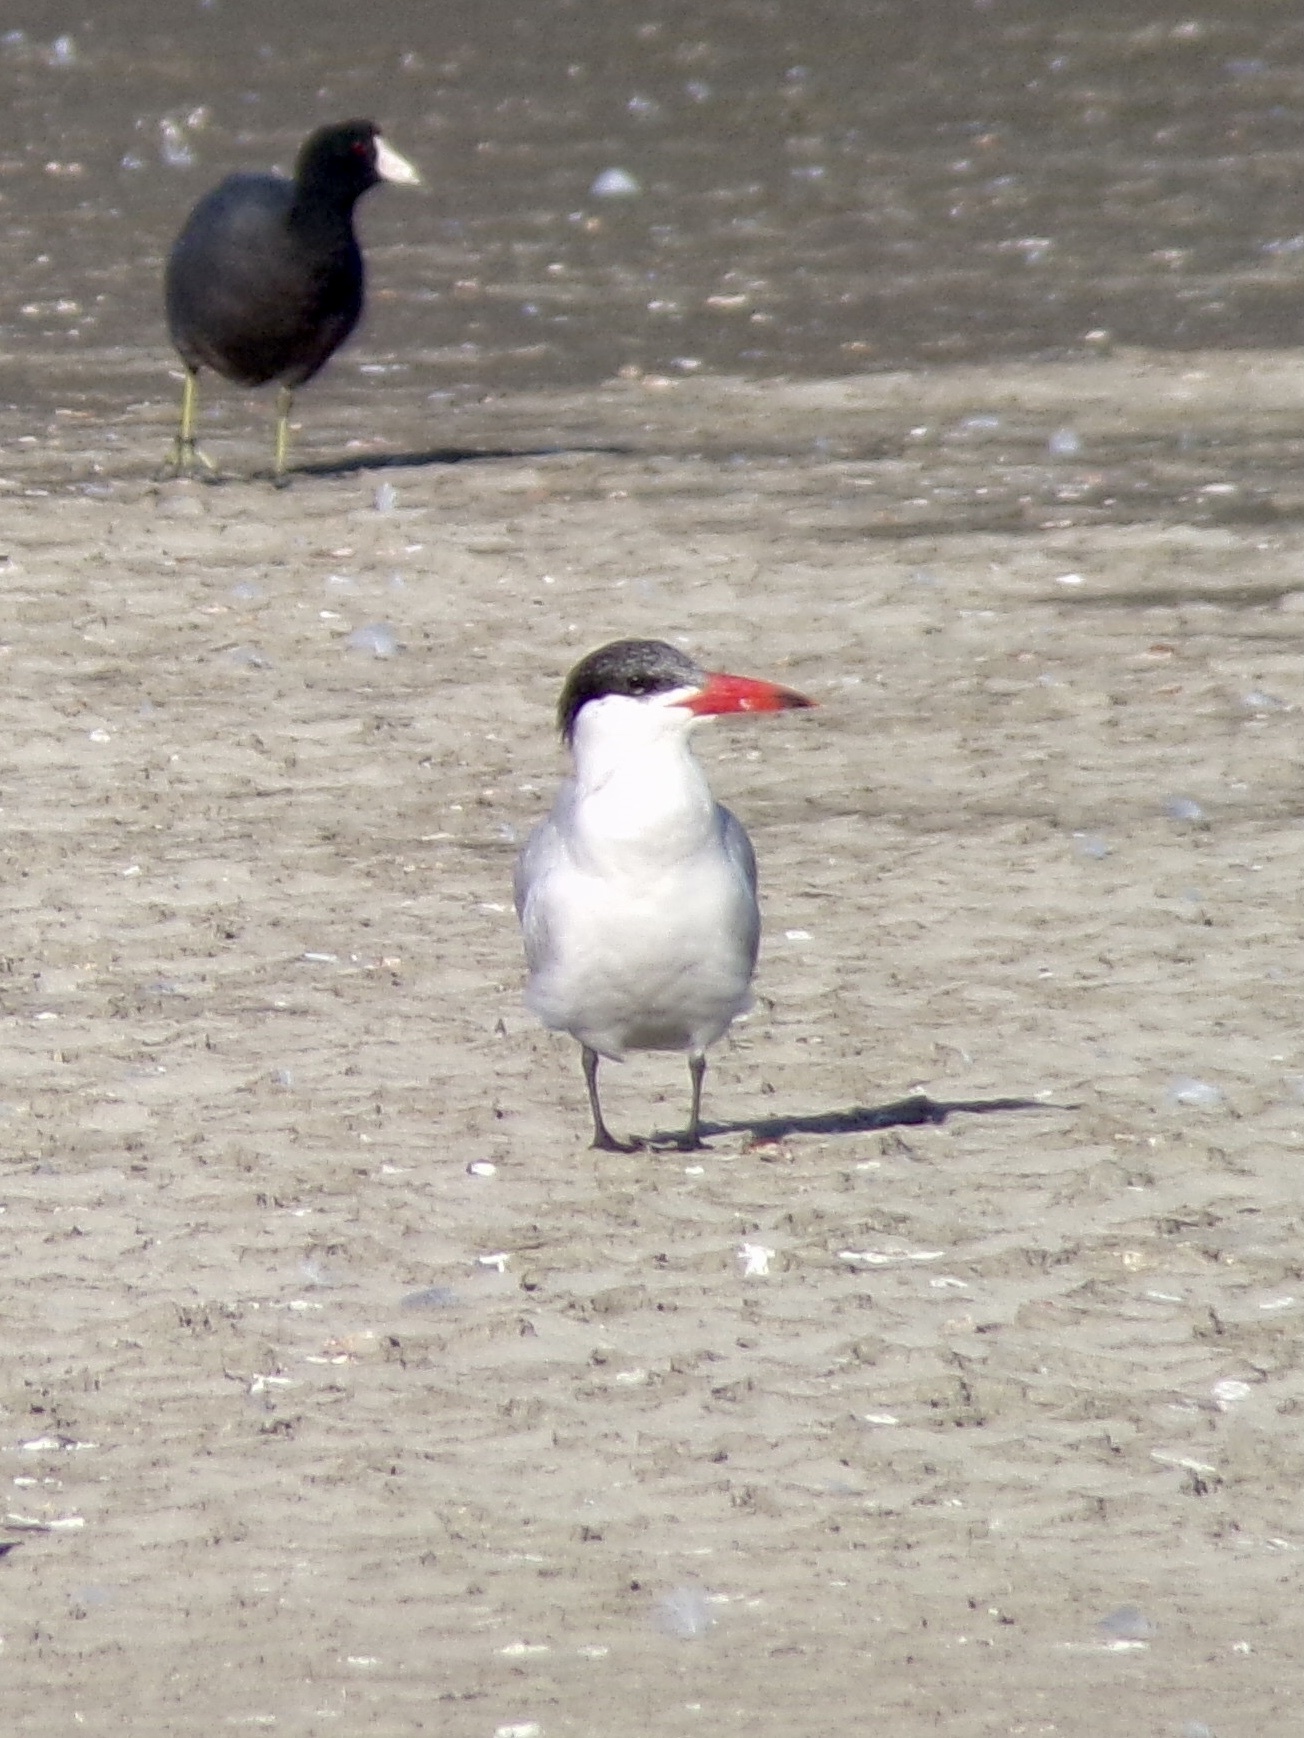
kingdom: Animalia
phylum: Chordata
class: Aves
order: Charadriiformes
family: Laridae
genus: Hydroprogne
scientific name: Hydroprogne caspia
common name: Caspian tern
